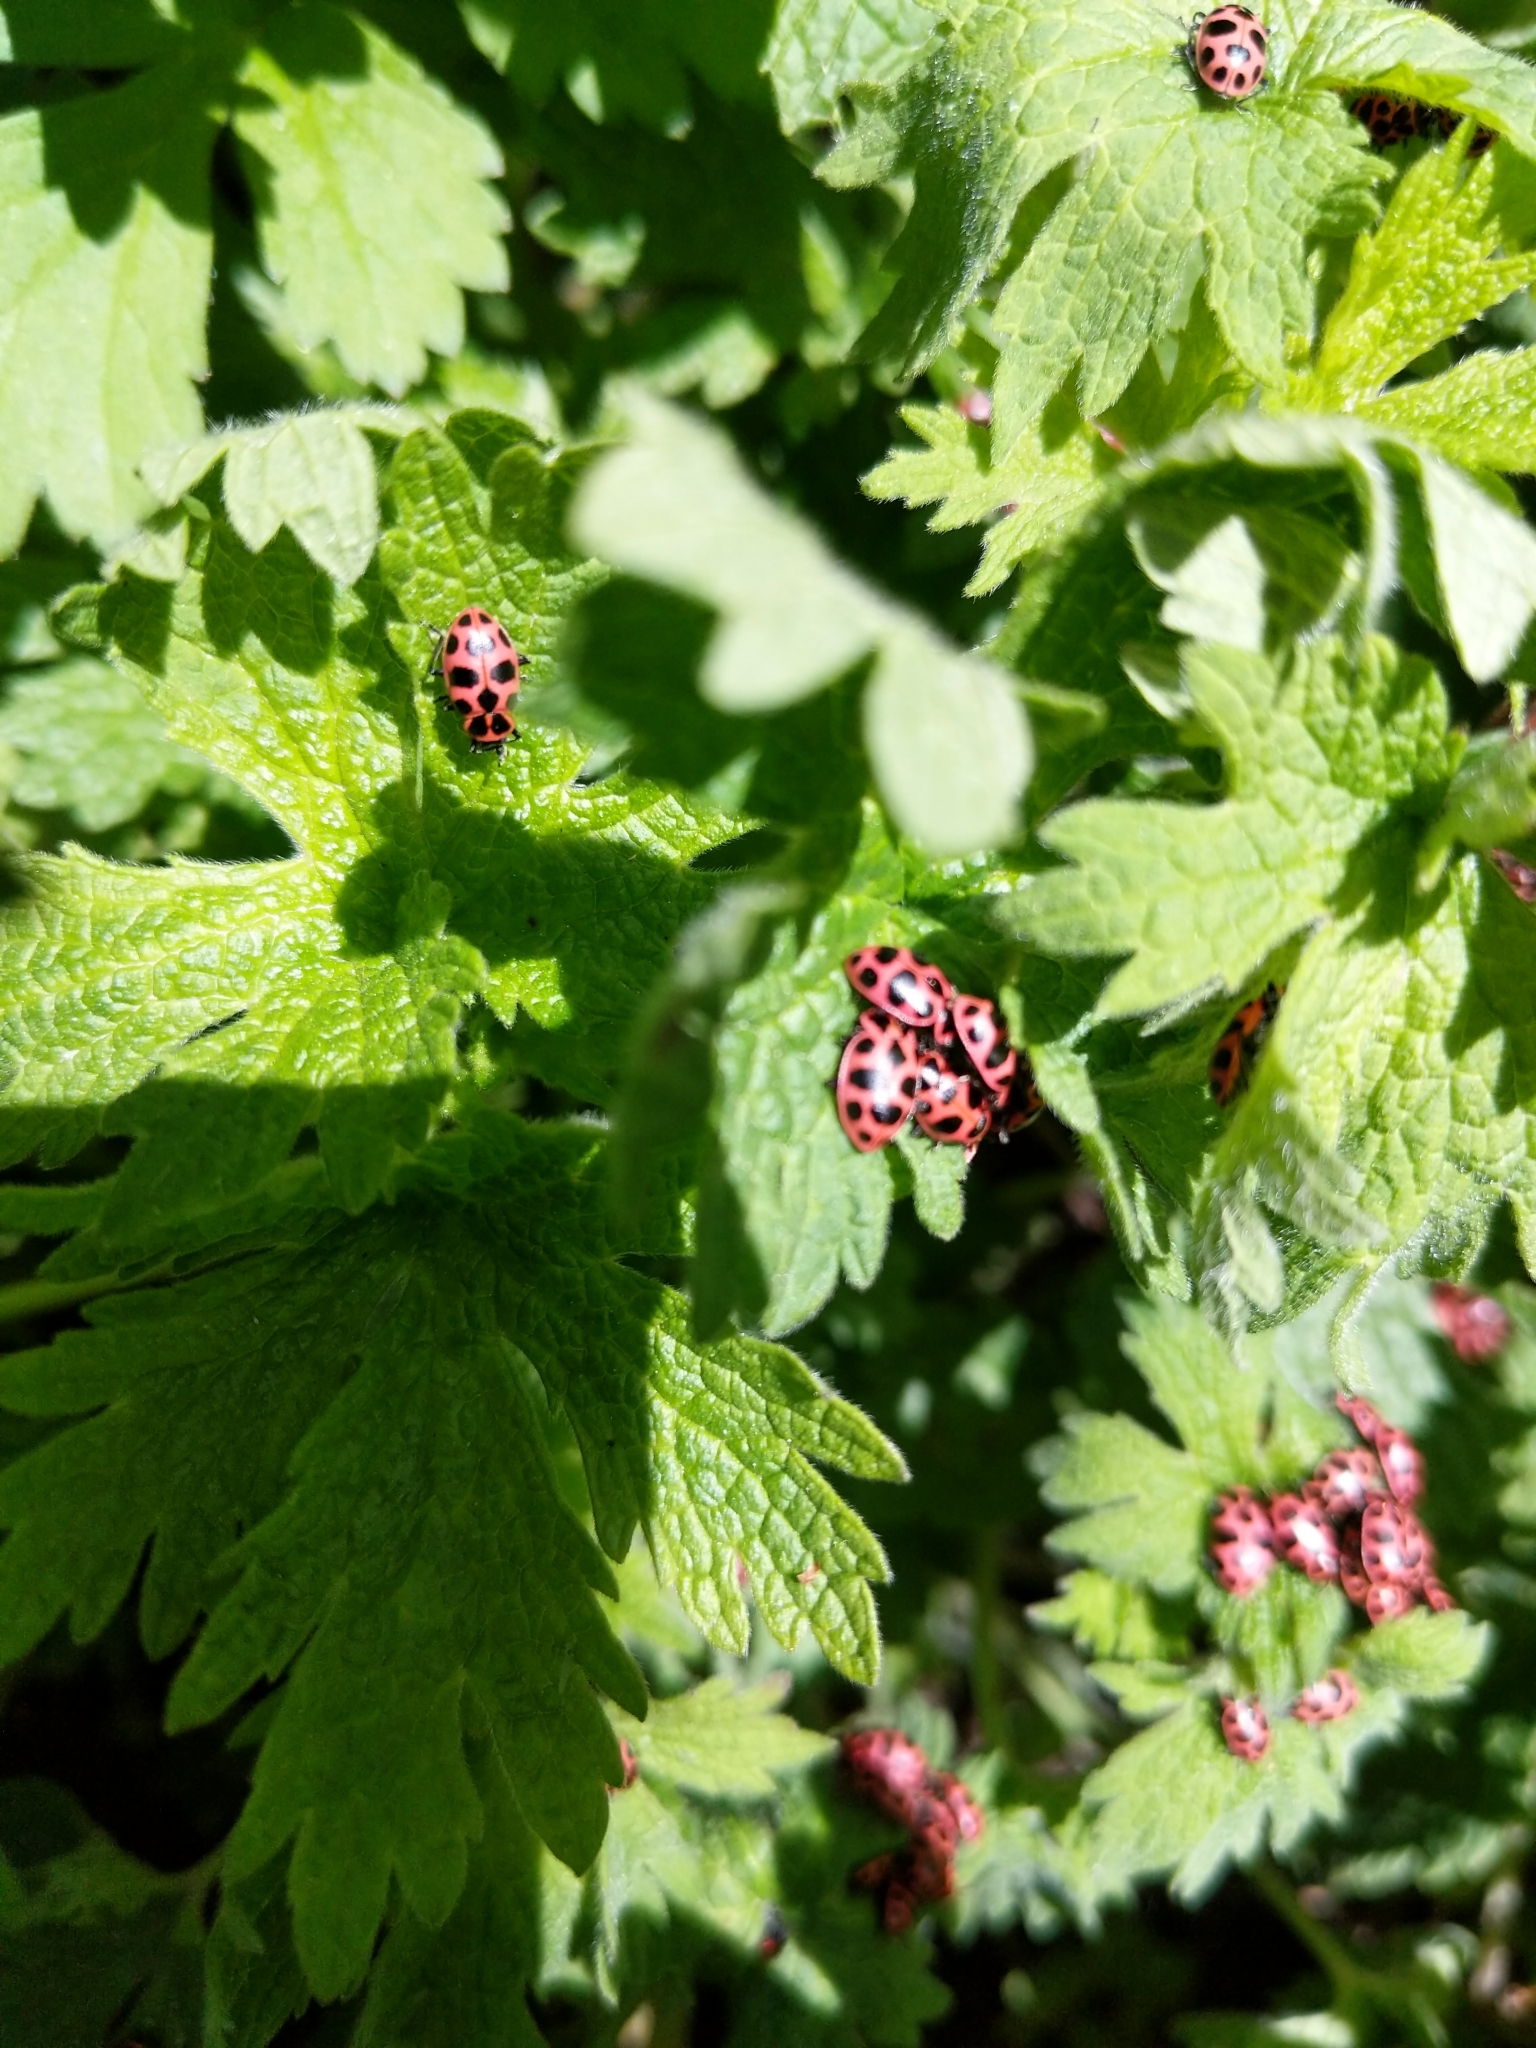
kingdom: Animalia
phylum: Arthropoda
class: Insecta
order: Coleoptera
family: Coccinellidae
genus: Coleomegilla
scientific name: Coleomegilla maculata
